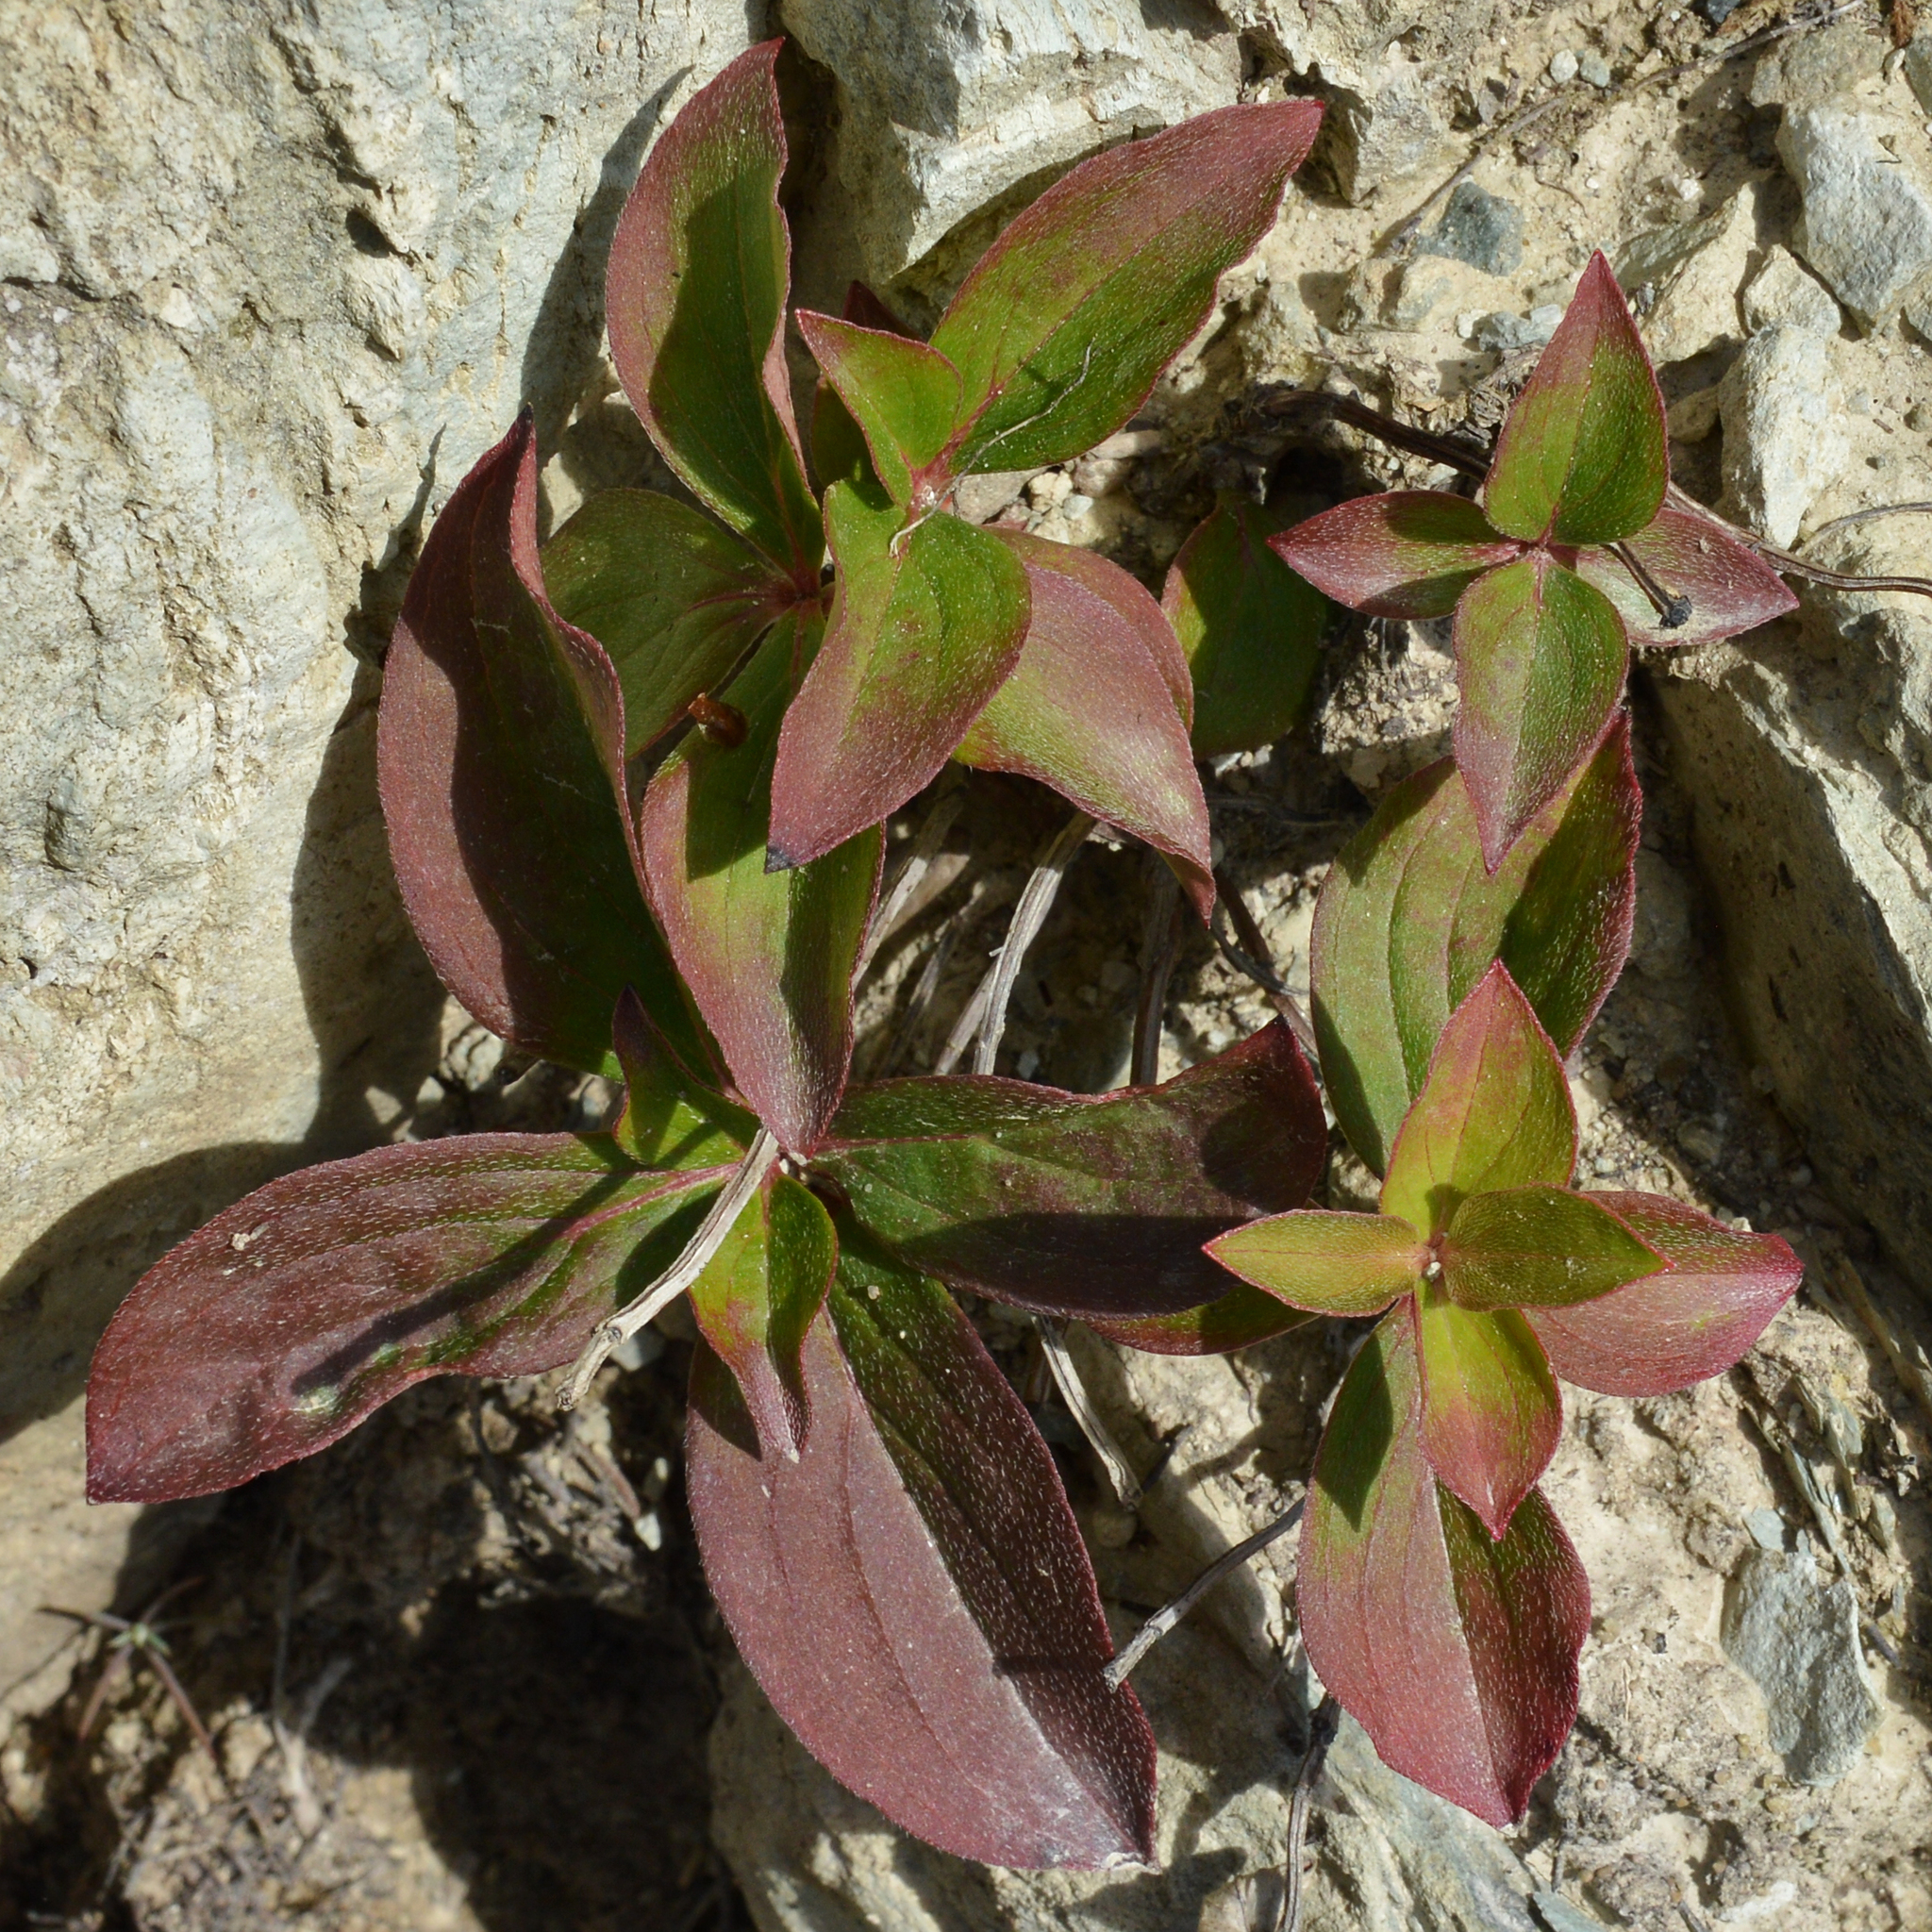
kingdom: Plantae
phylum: Tracheophyta
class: Magnoliopsida
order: Cornales
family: Cornaceae
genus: Cornus
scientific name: Cornus suecica
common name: Dwarf cornel
